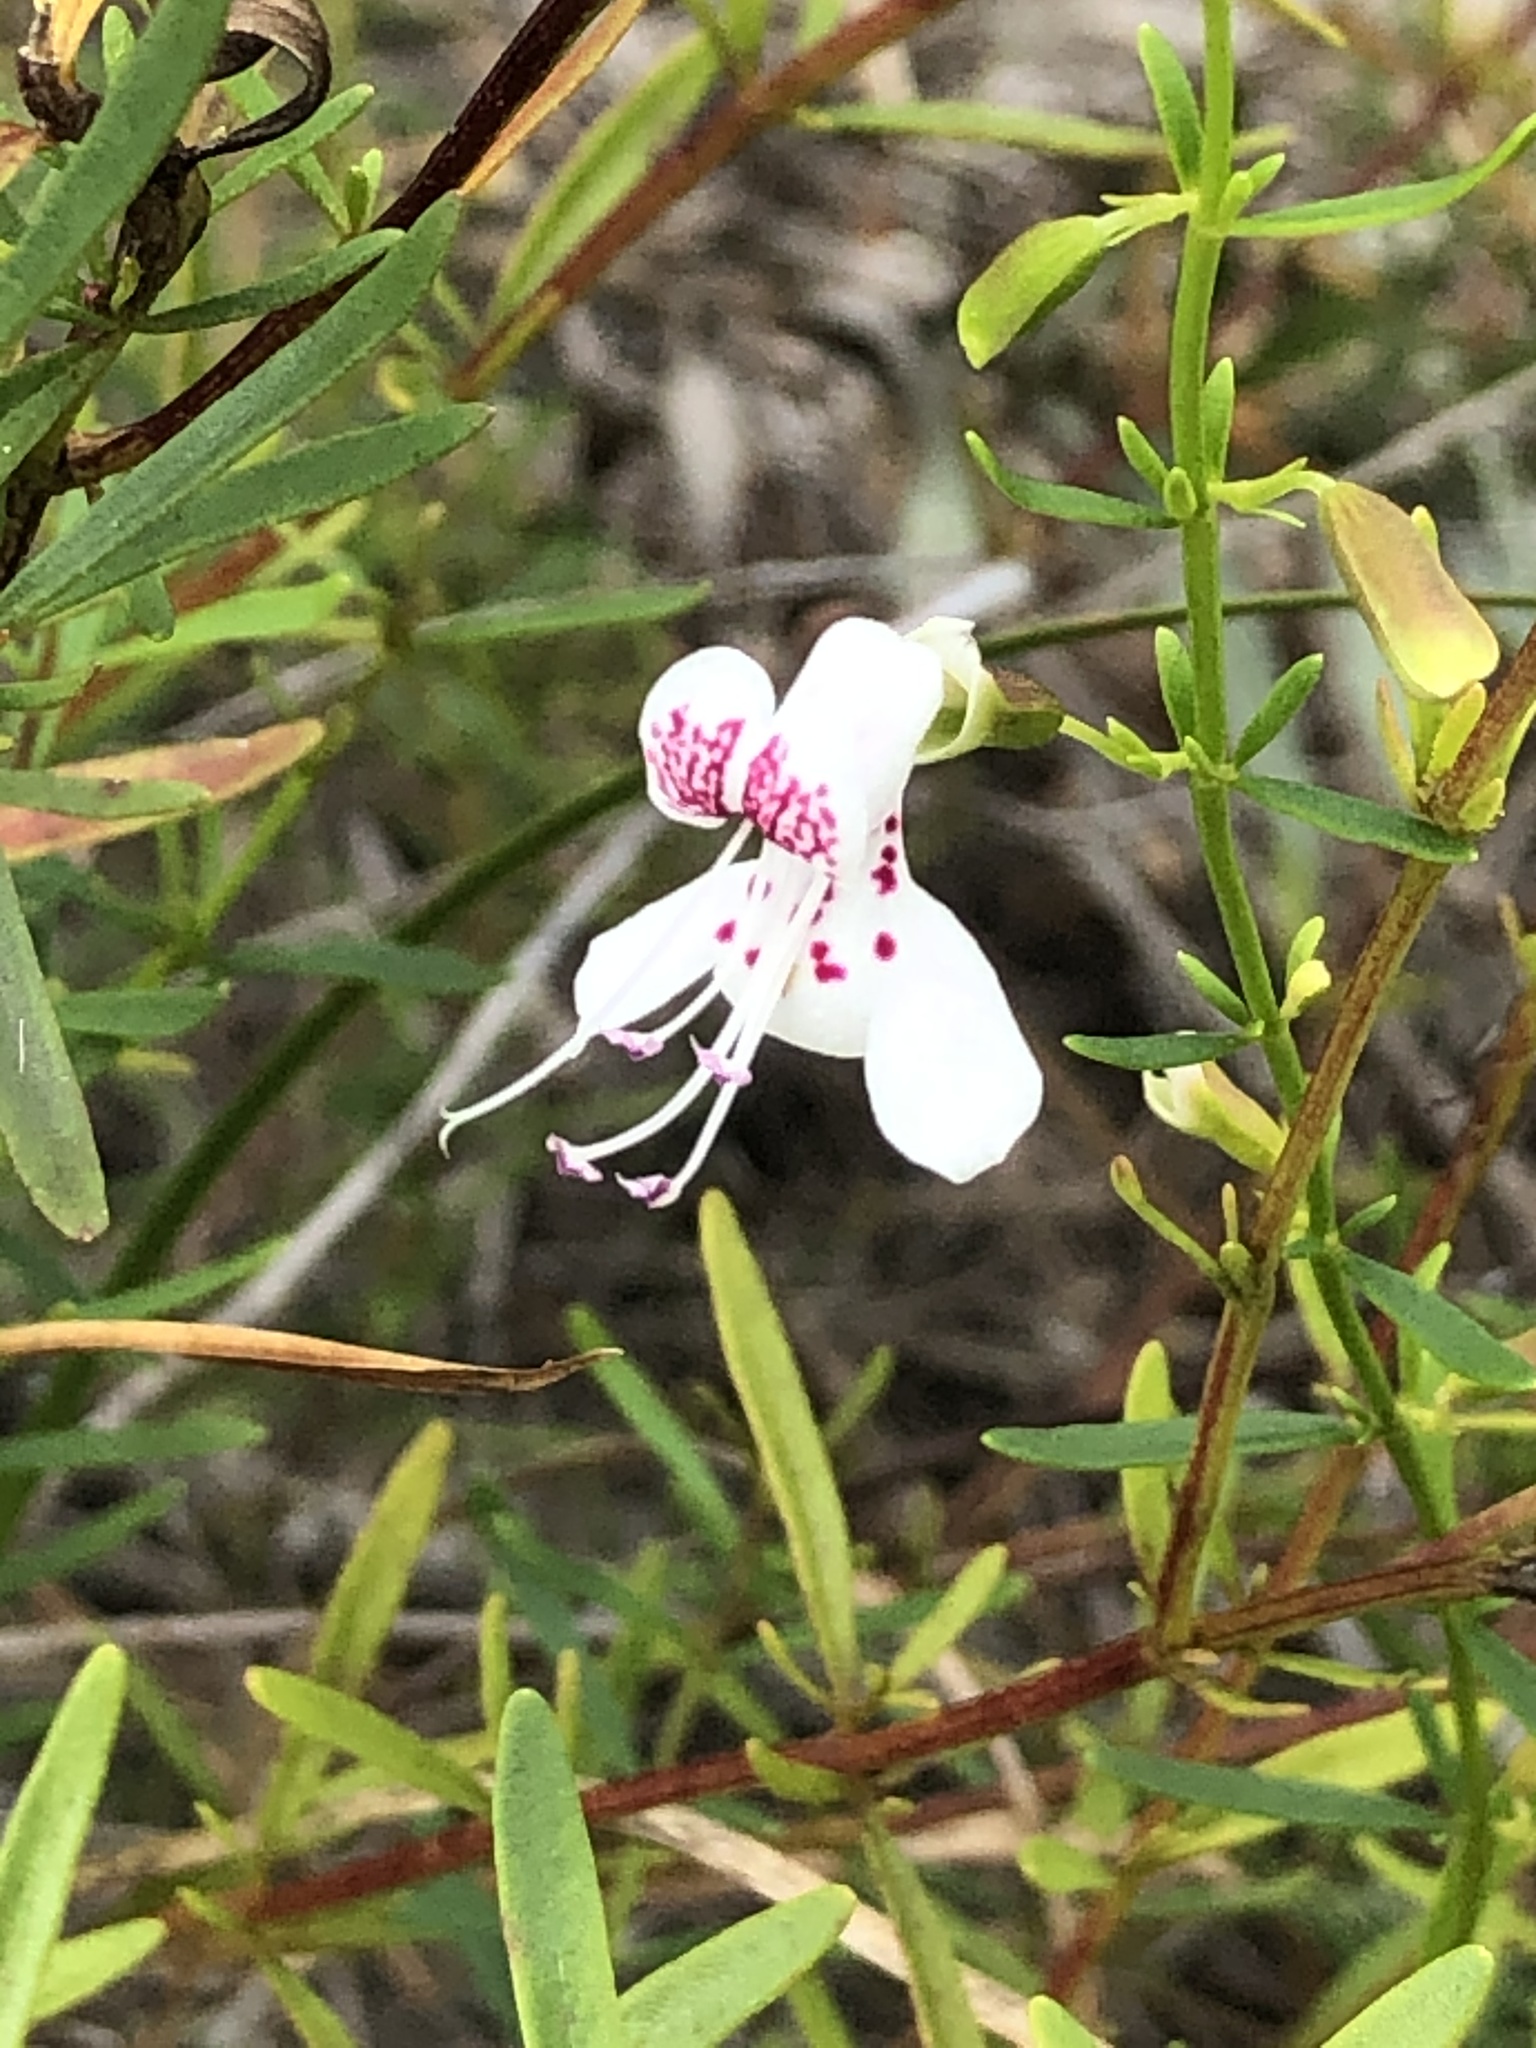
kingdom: Plantae
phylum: Tracheophyta
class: Magnoliopsida
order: Lamiales
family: Lamiaceae
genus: Dicerandra
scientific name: Dicerandra frutescens
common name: Scrub-mint
